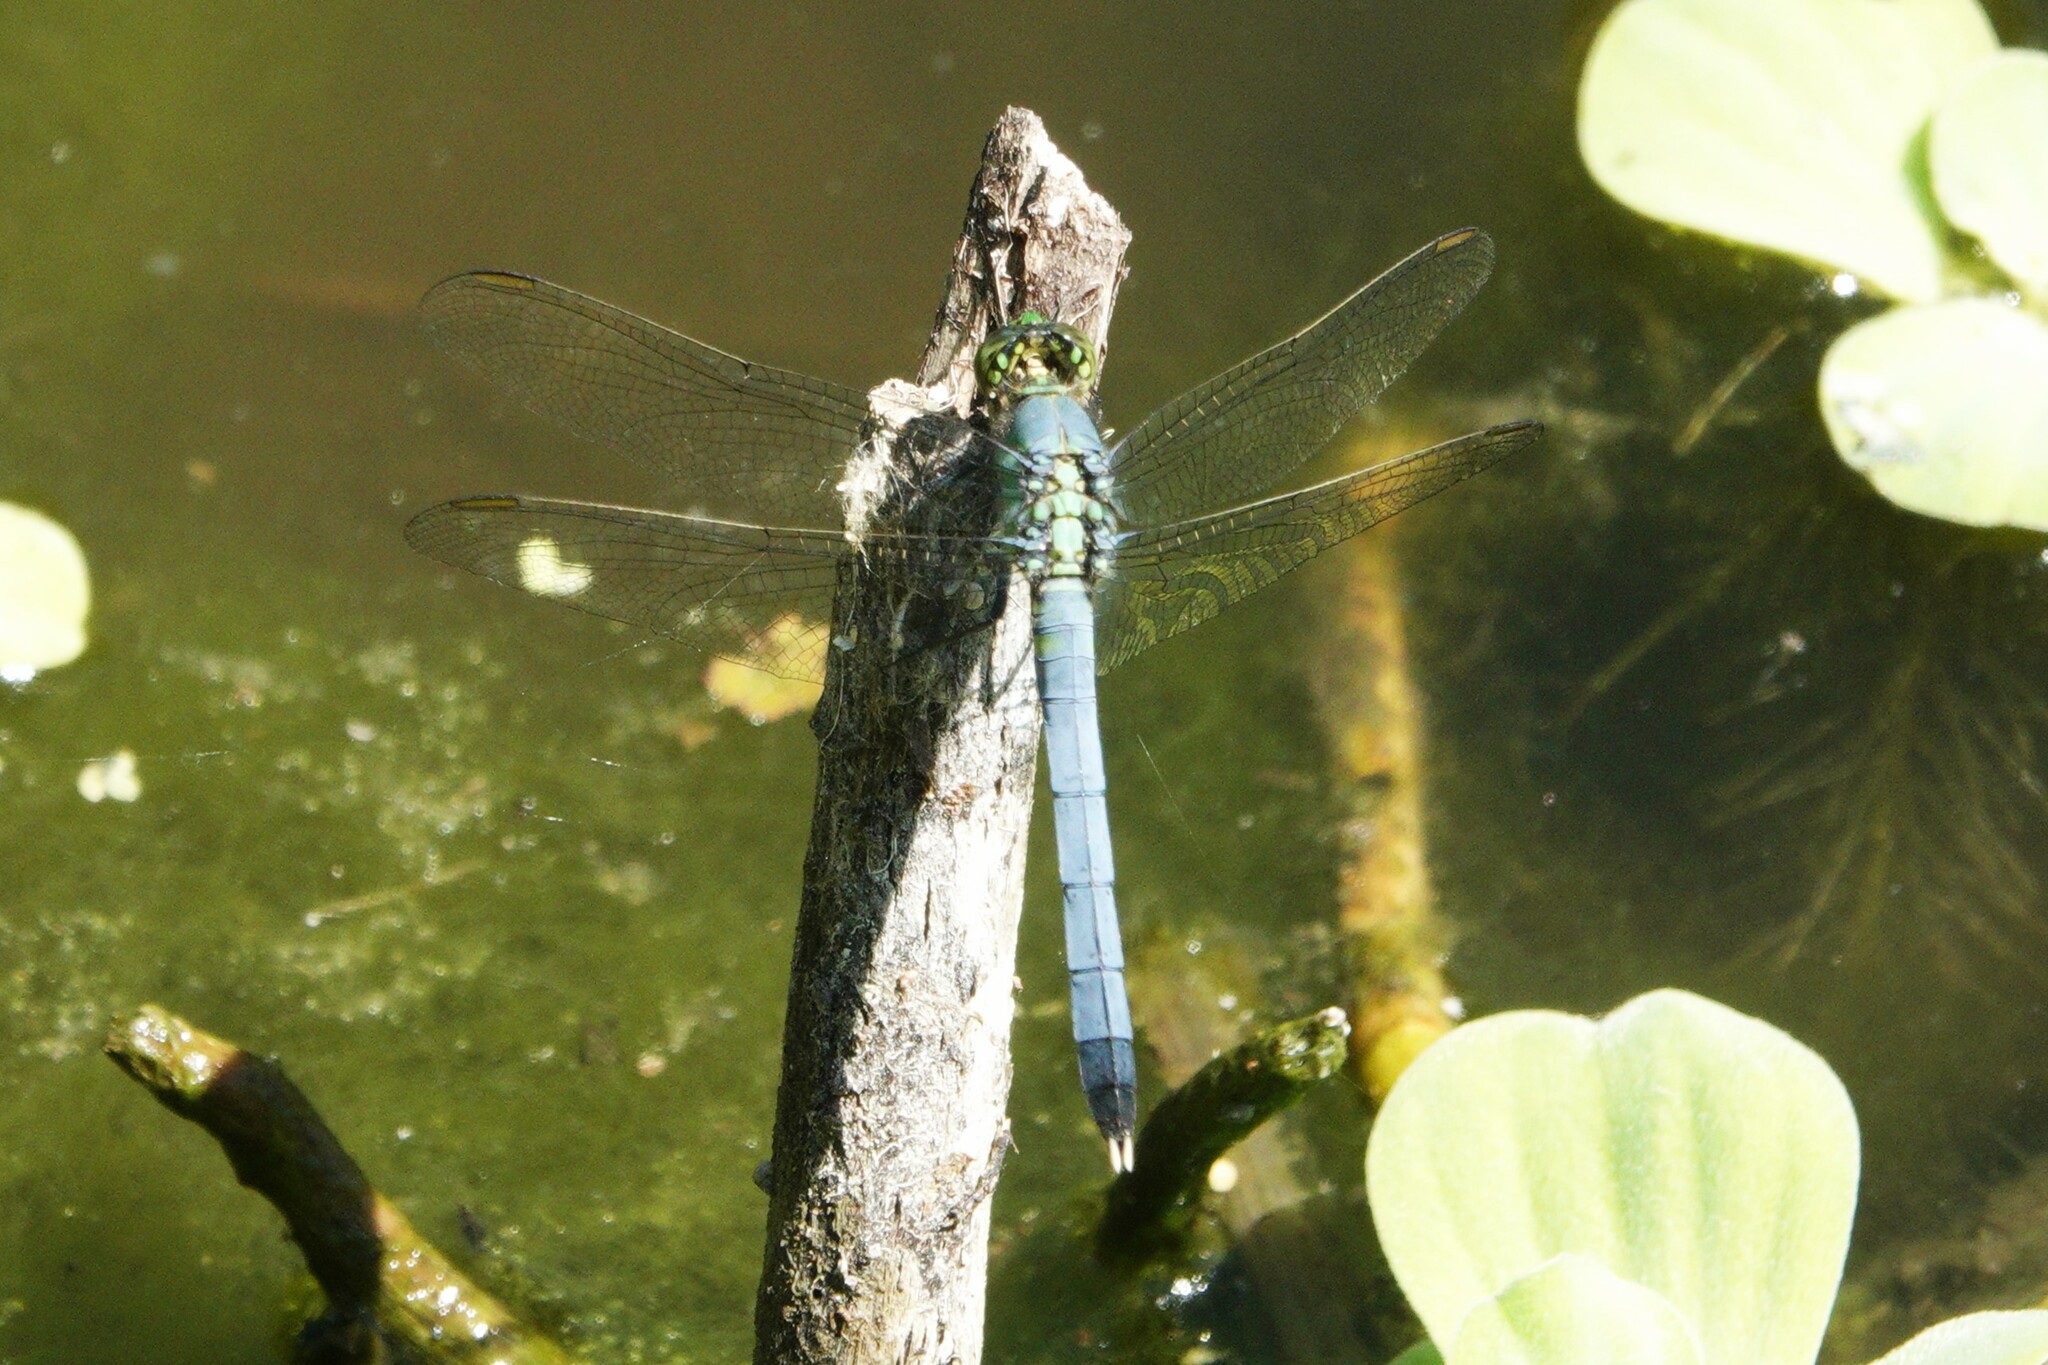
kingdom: Animalia
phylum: Arthropoda
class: Insecta
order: Odonata
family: Libellulidae
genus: Erythemis
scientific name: Erythemis simplicicollis
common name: Eastern pondhawk
